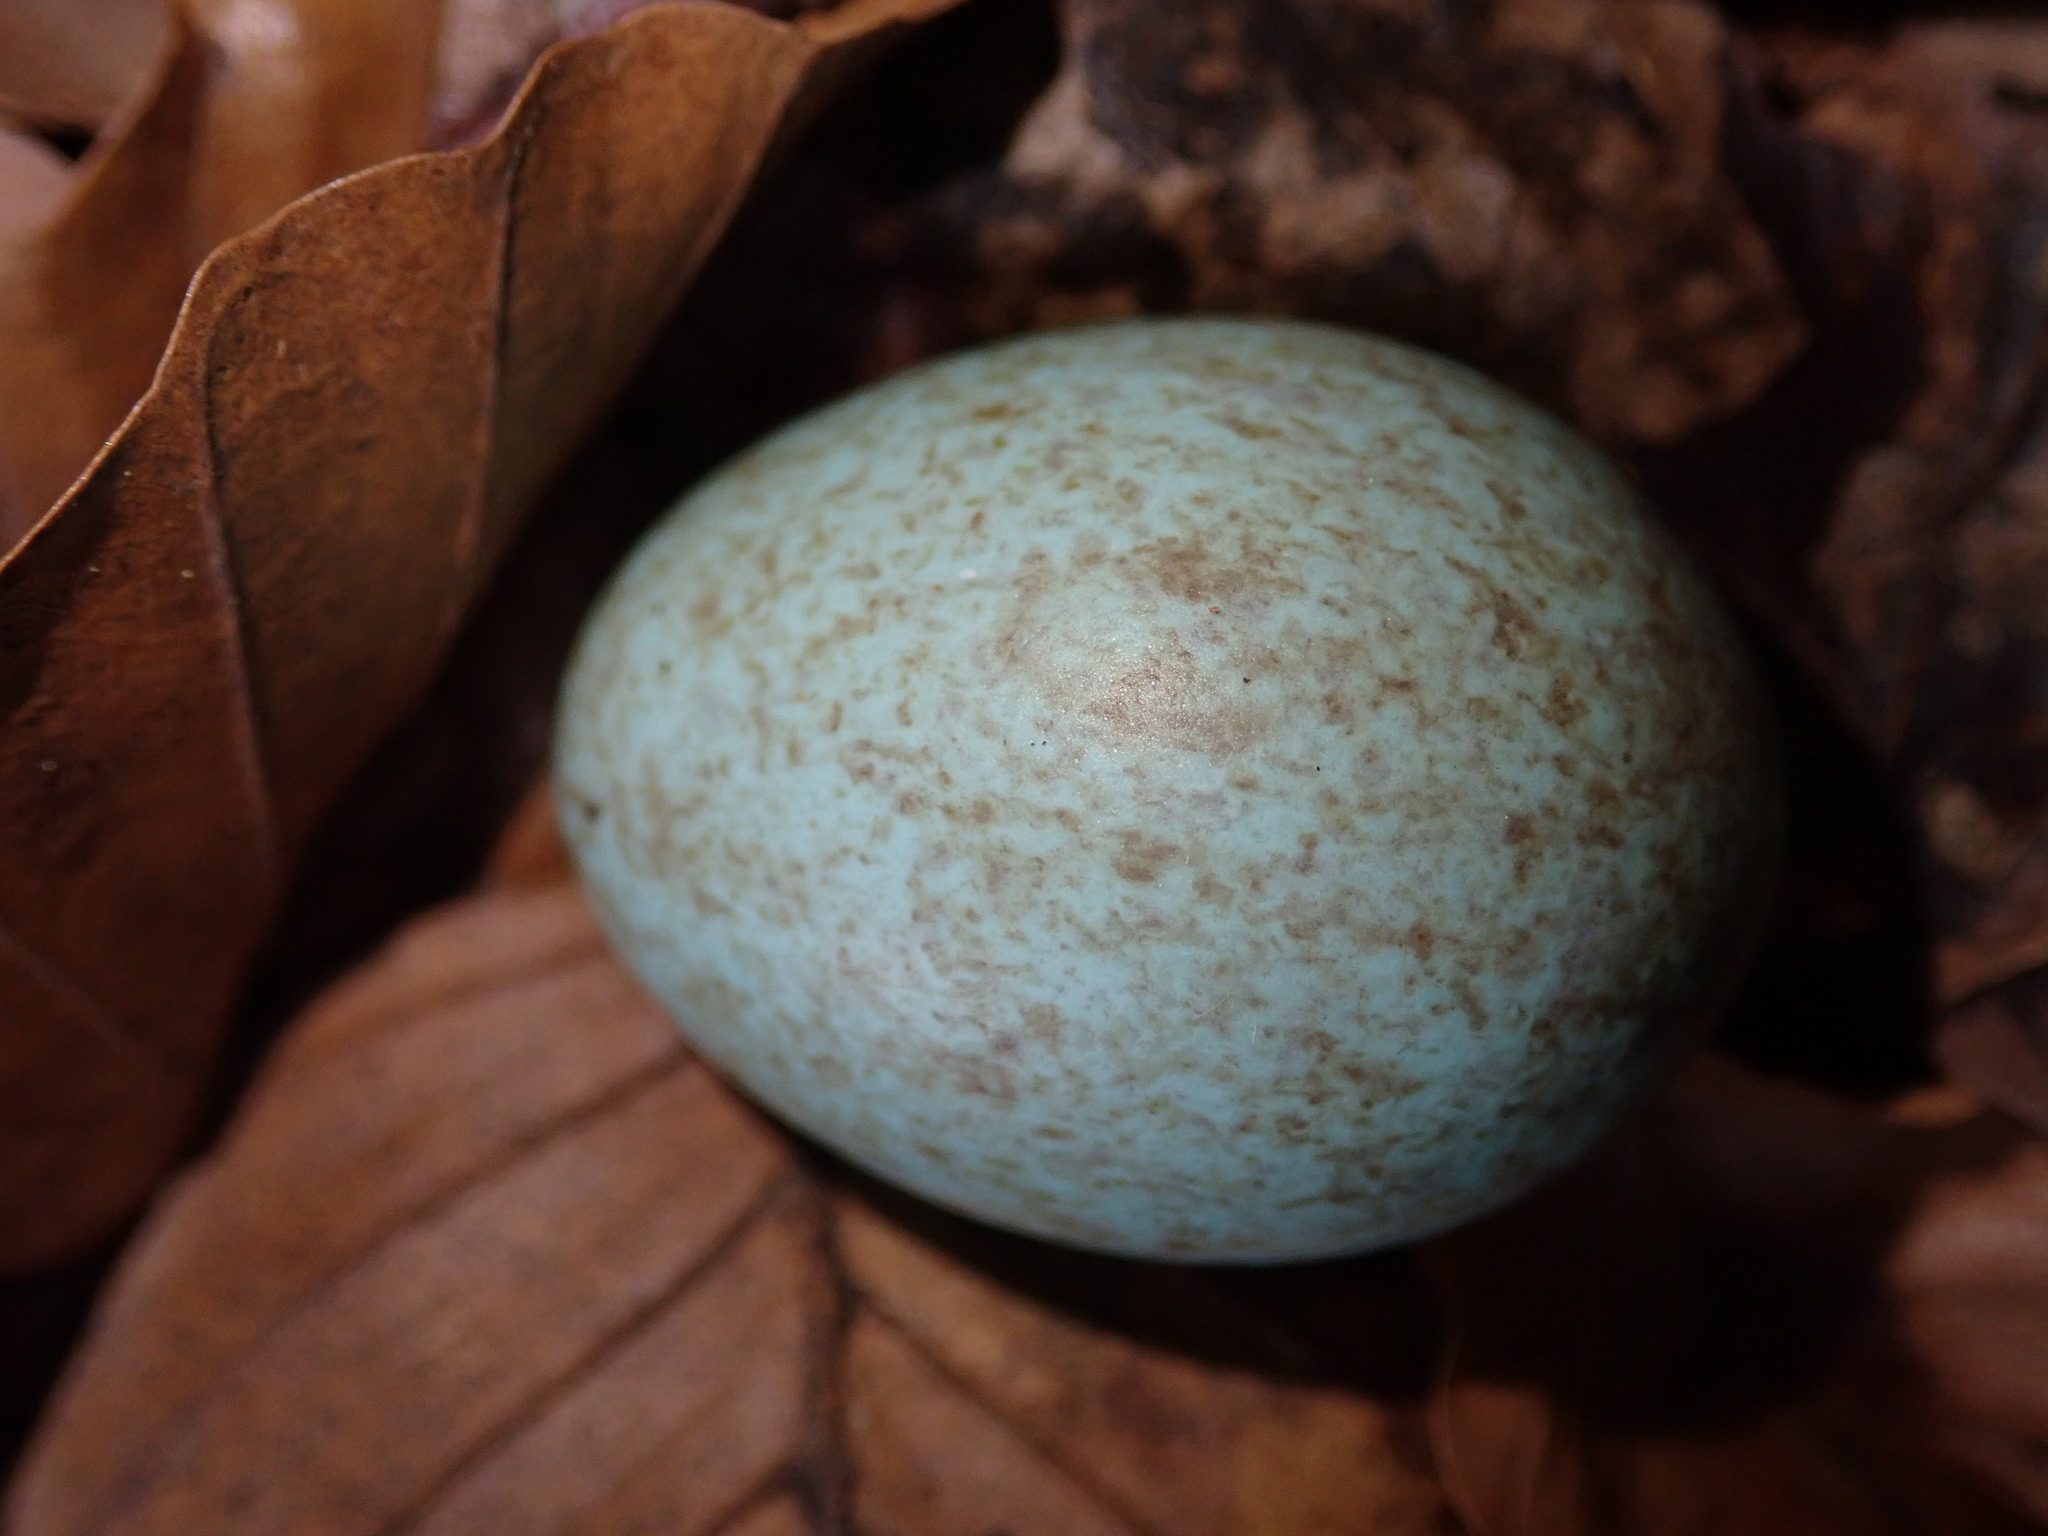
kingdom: Animalia
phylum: Chordata
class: Aves
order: Passeriformes
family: Turdidae
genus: Turdus
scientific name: Turdus merula
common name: Common blackbird
